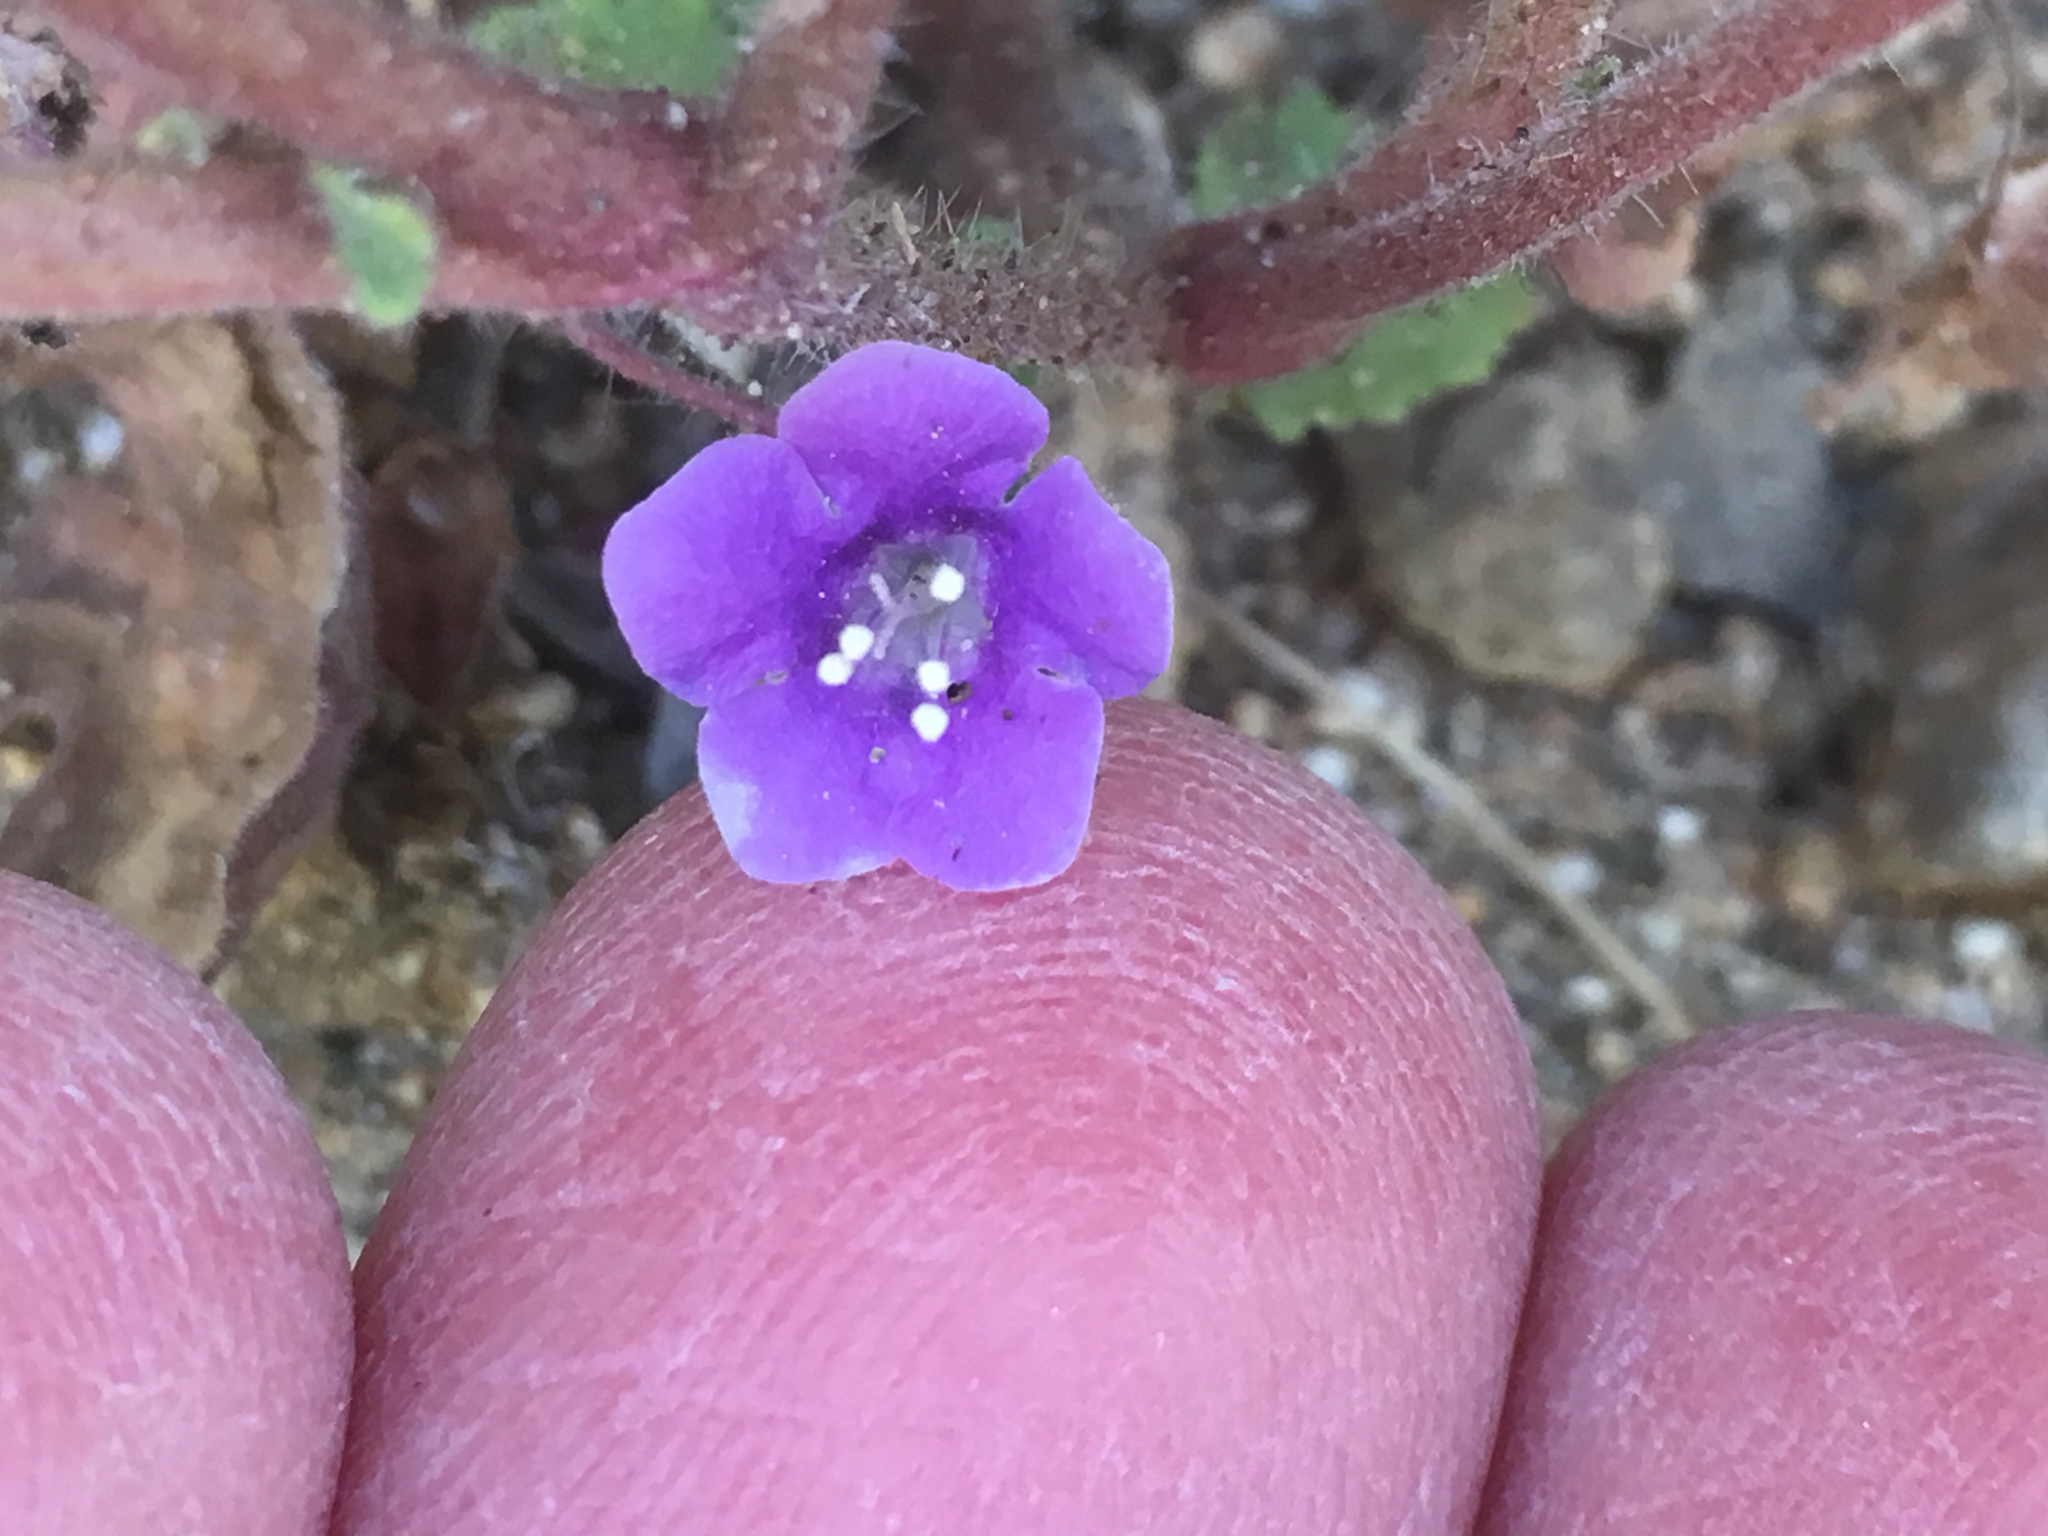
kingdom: Plantae
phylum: Tracheophyta
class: Magnoliopsida
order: Boraginales
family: Hydrophyllaceae
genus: Phacelia
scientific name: Phacelia minor
